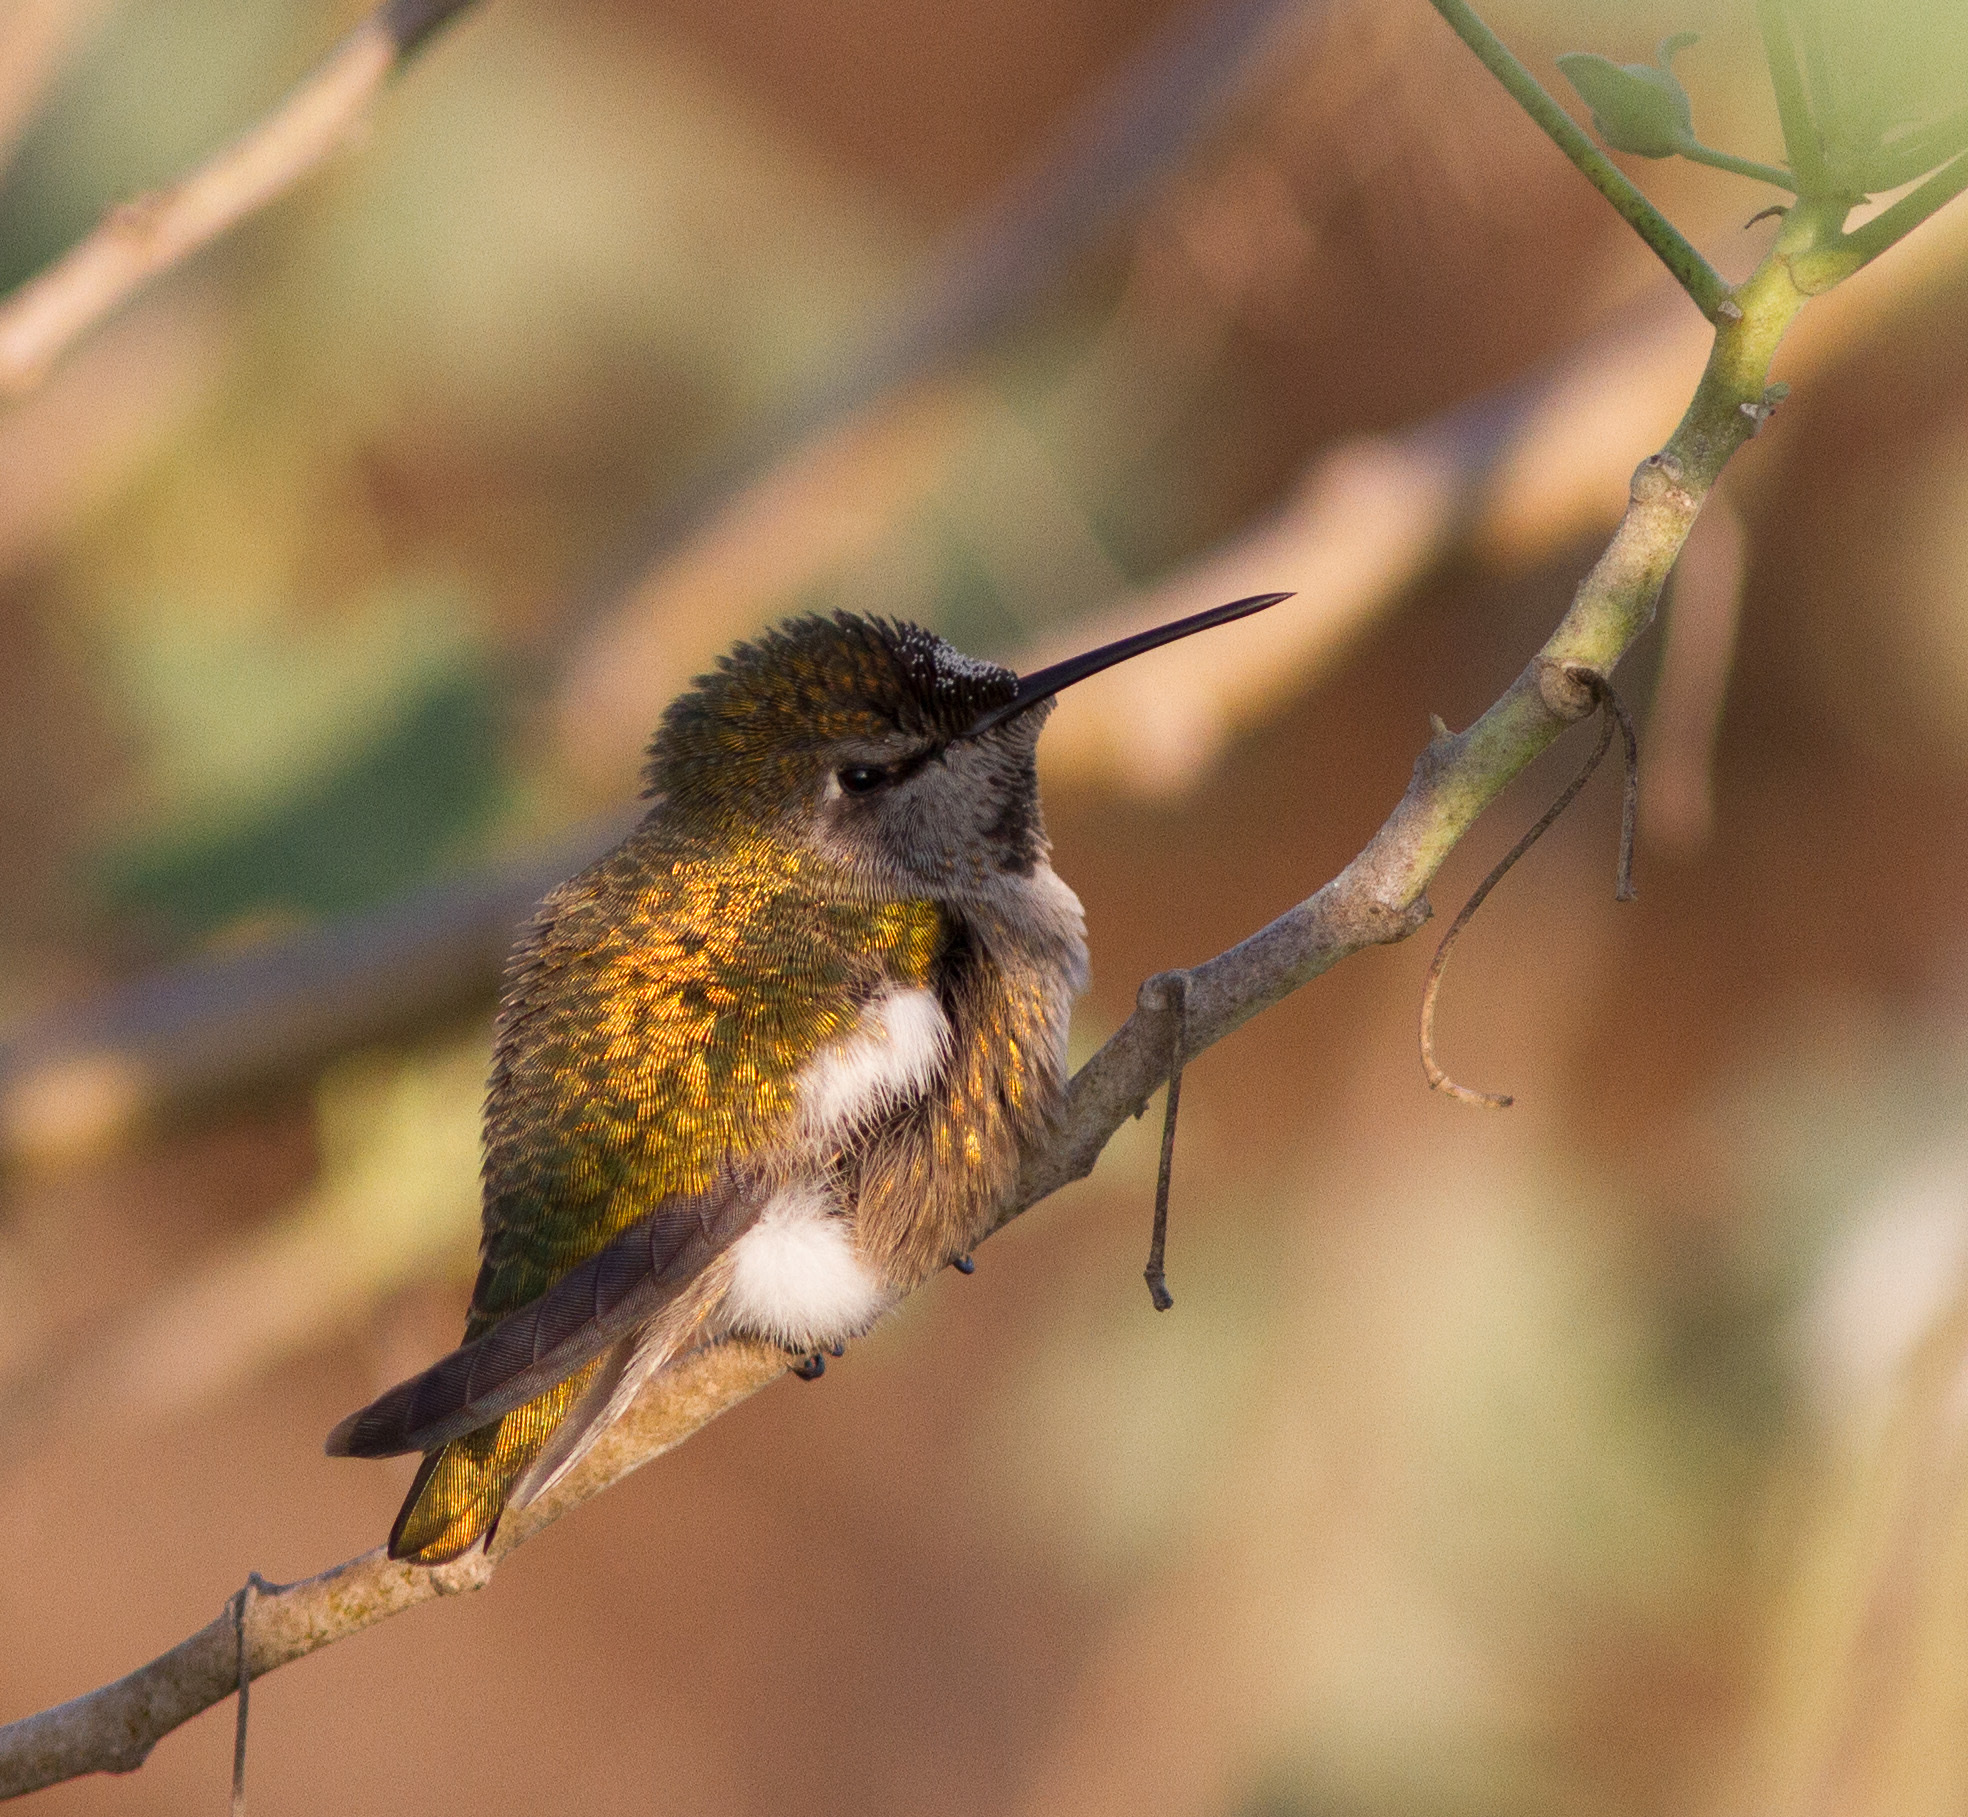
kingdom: Animalia
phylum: Chordata
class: Aves
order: Apodiformes
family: Trochilidae
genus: Calypte
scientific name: Calypte anna
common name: Anna's hummingbird
